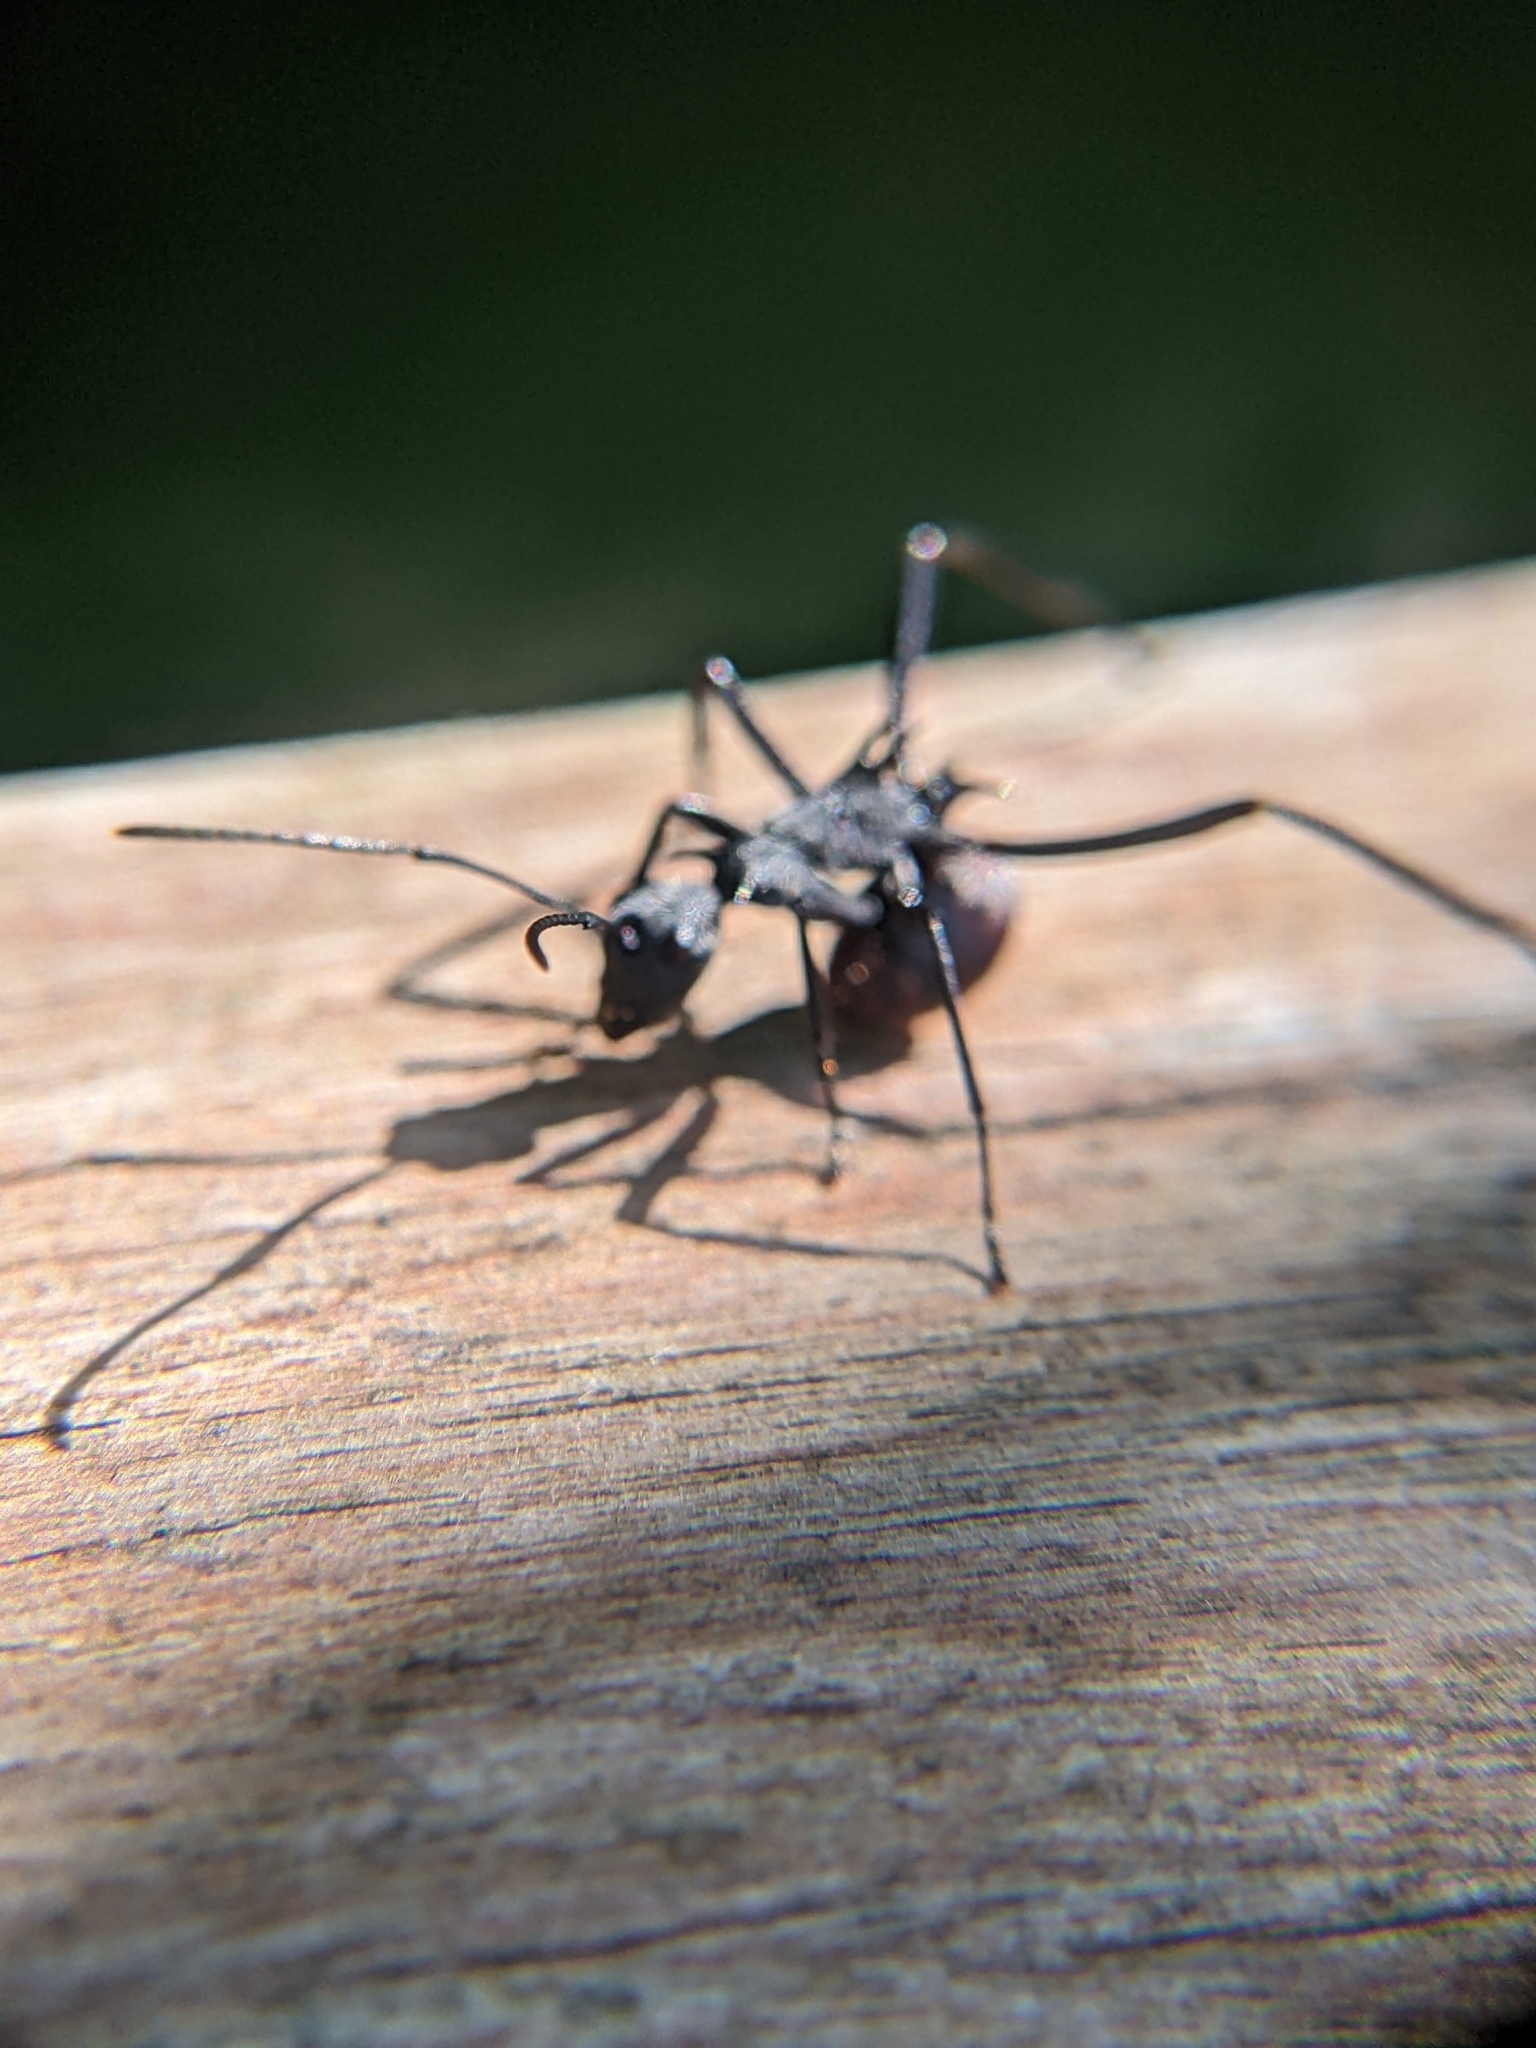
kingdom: Animalia
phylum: Arthropoda
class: Insecta
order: Hymenoptera
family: Formicidae
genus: Polyrhachis
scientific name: Polyrhachis abdominalis
